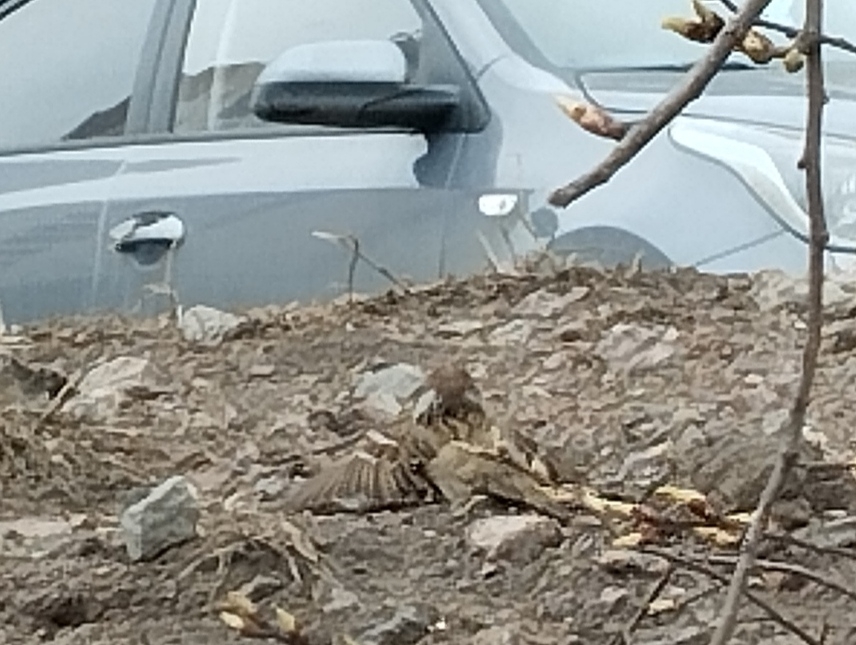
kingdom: Animalia
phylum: Chordata
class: Aves
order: Passeriformes
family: Passeridae
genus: Passer
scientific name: Passer montanus
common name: Eurasian tree sparrow
